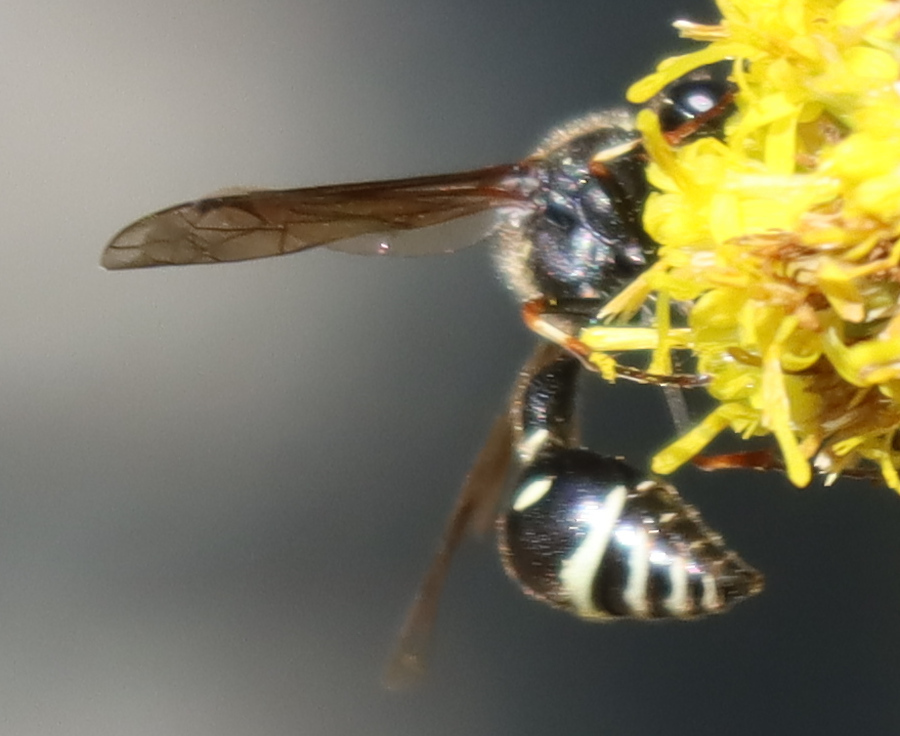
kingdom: Animalia
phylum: Arthropoda
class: Insecta
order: Hymenoptera
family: Vespidae
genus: Eumenes
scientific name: Eumenes crucifera
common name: Cross potter wasp
